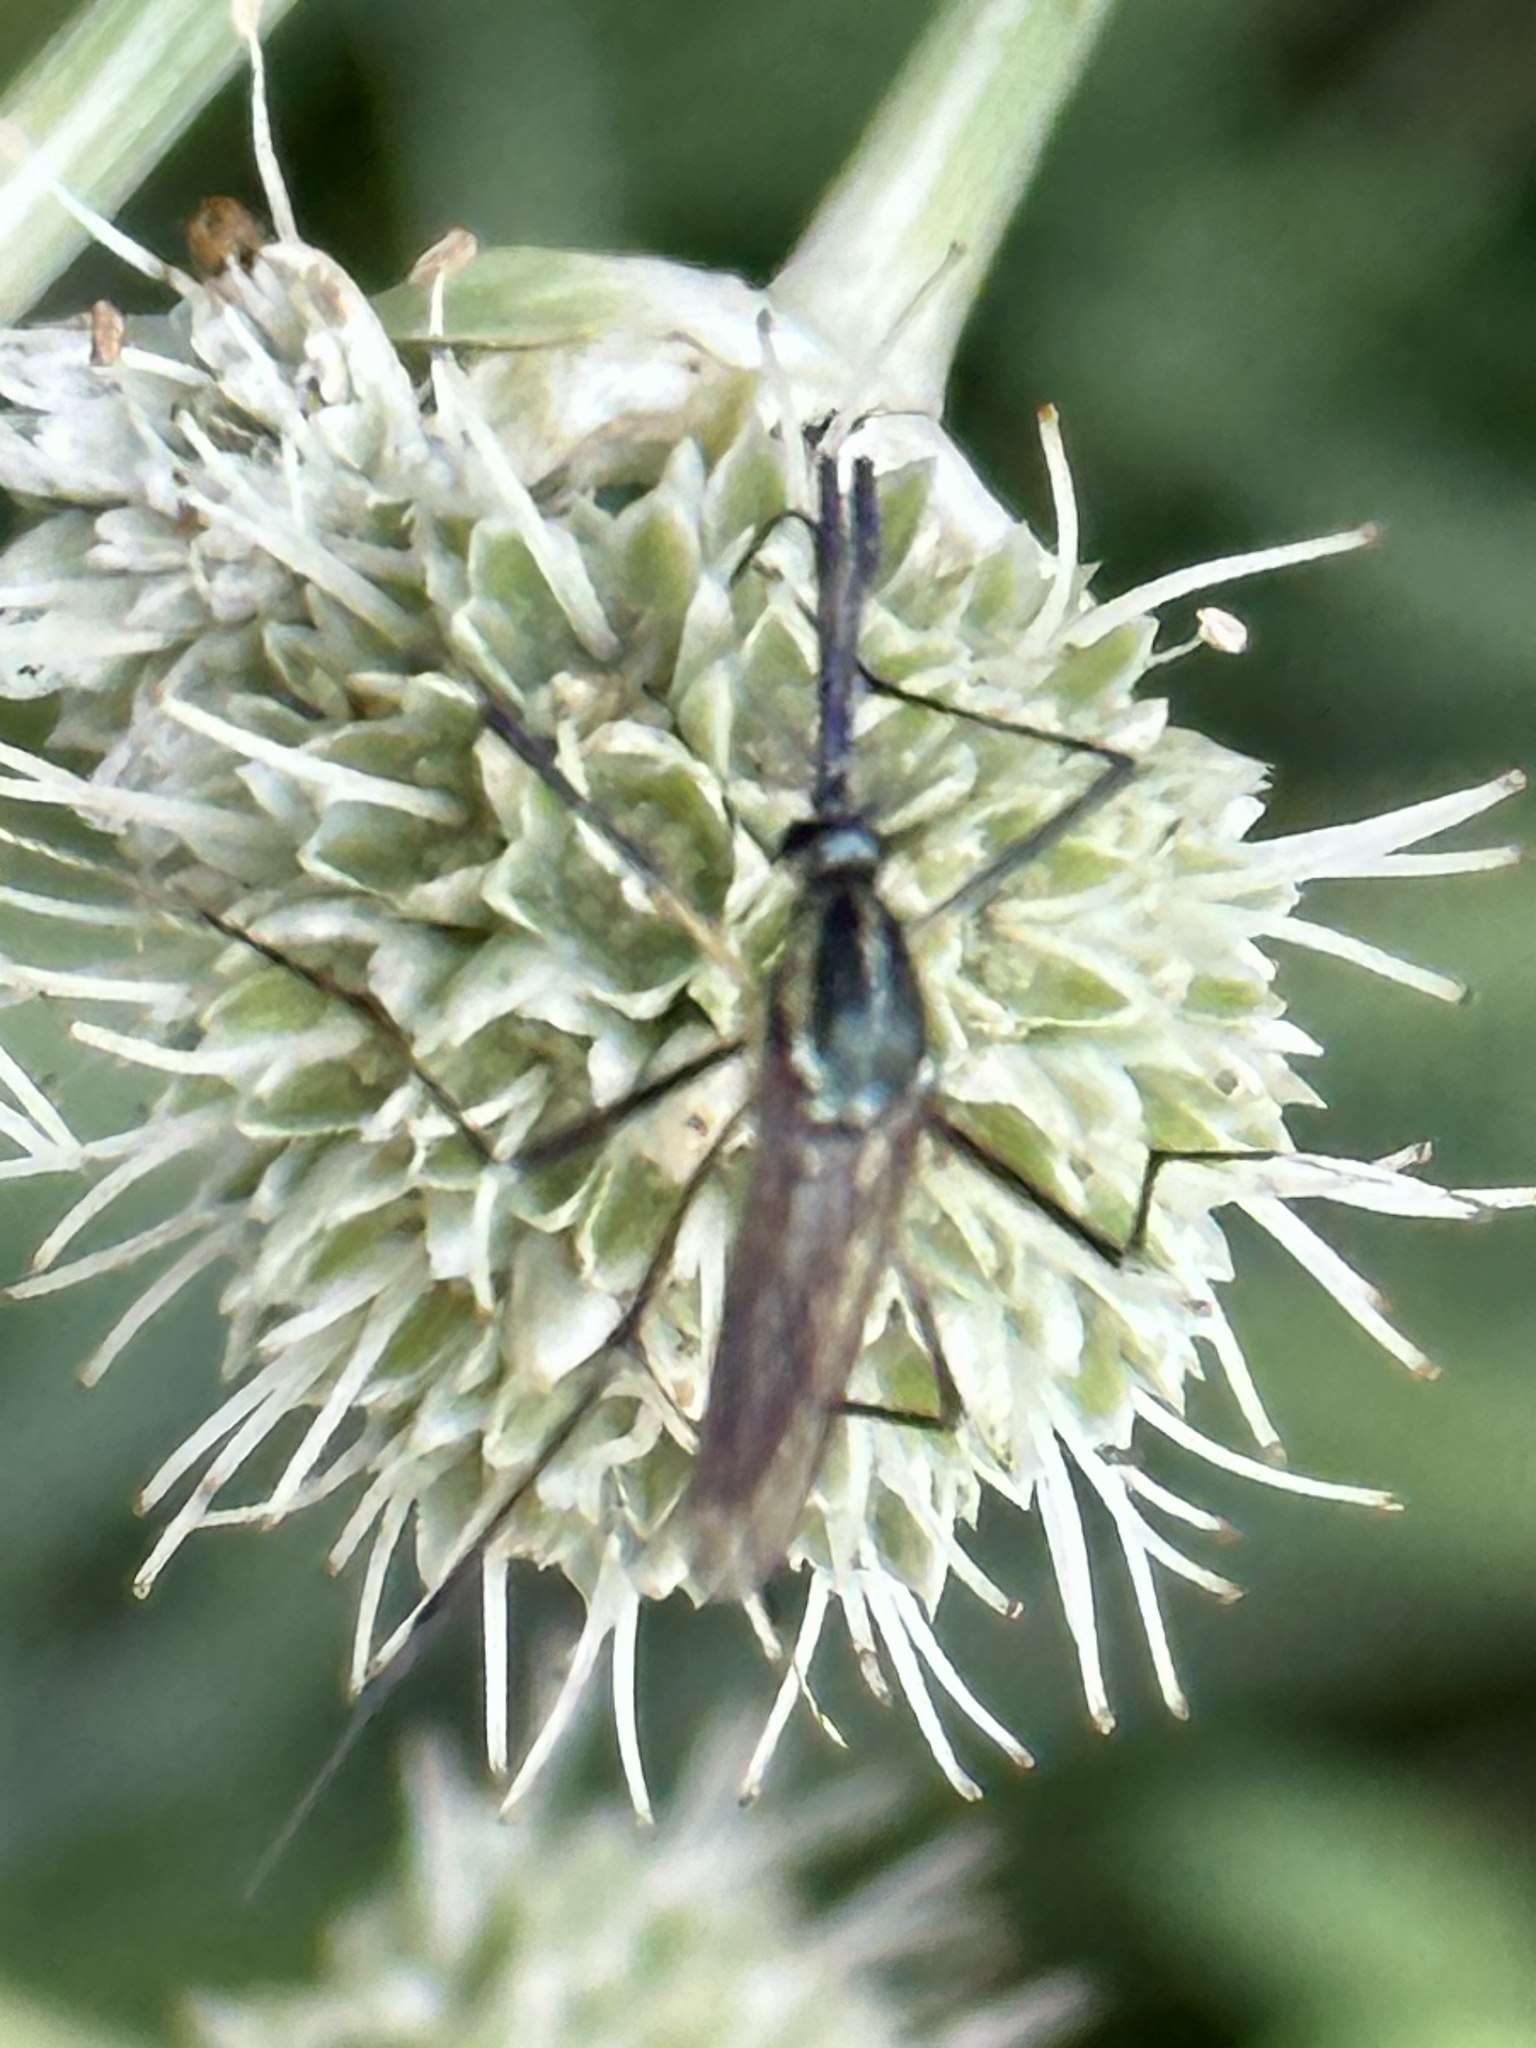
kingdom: Animalia
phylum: Arthropoda
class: Insecta
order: Diptera
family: Culicidae
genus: Toxorhynchites
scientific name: Toxorhynchites rutilus
